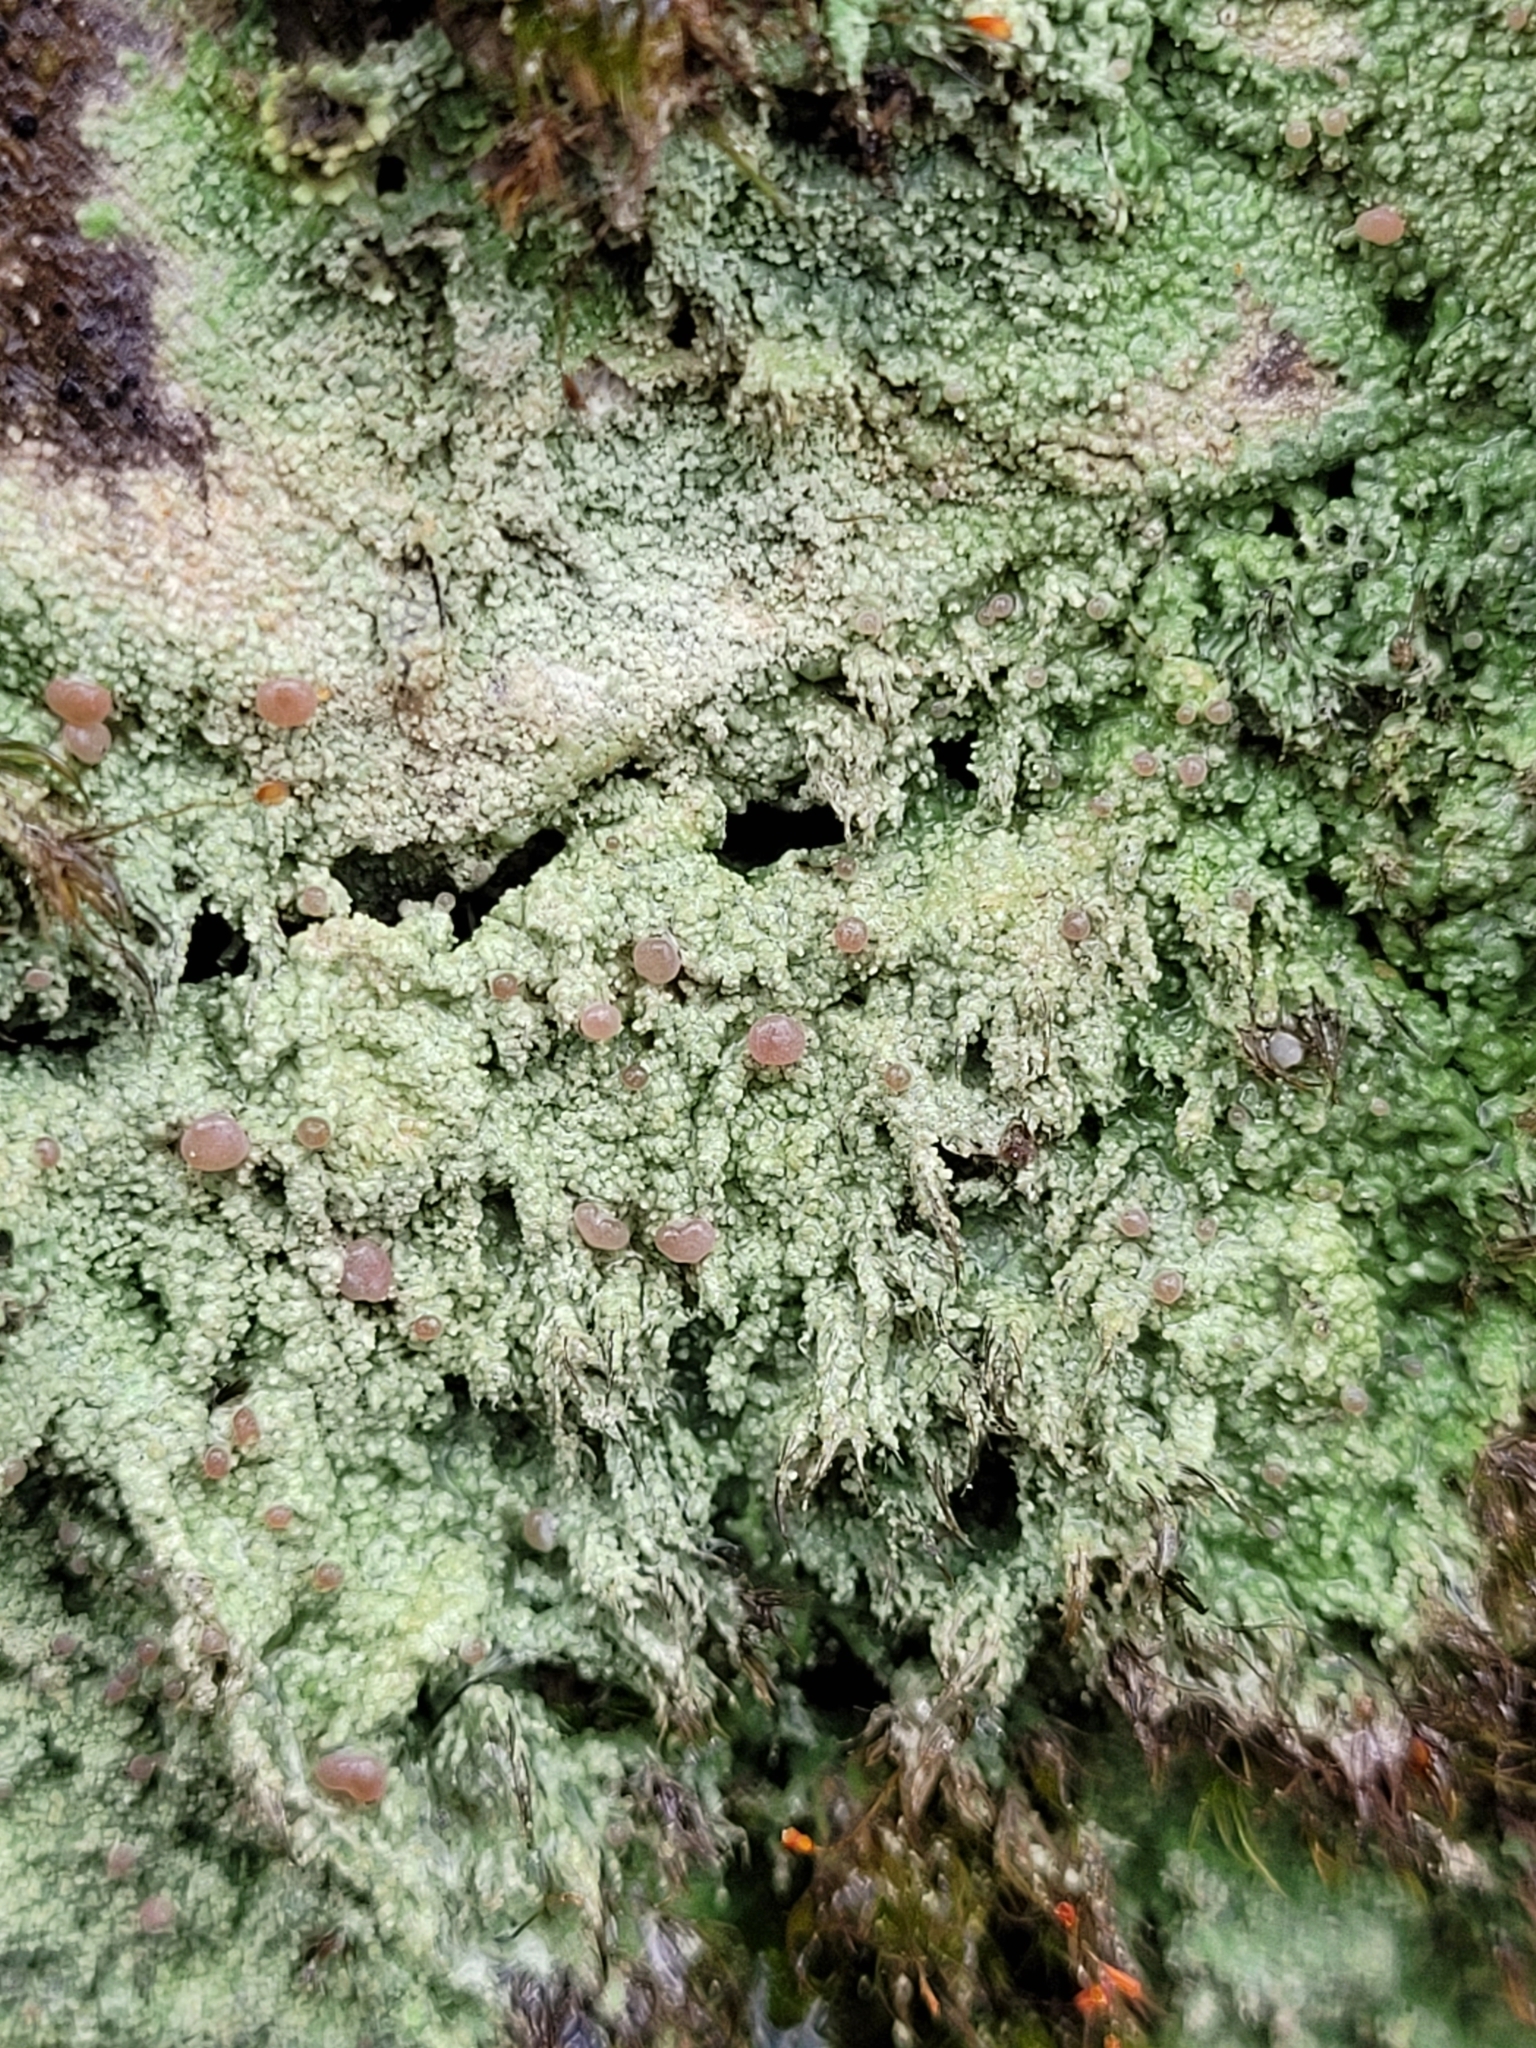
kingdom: Fungi
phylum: Ascomycota
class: Lecanoromycetes
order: Baeomycetales
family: Baeomycetaceae
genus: Baeomyces
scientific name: Baeomyces rufus
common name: Brown beret lichen
